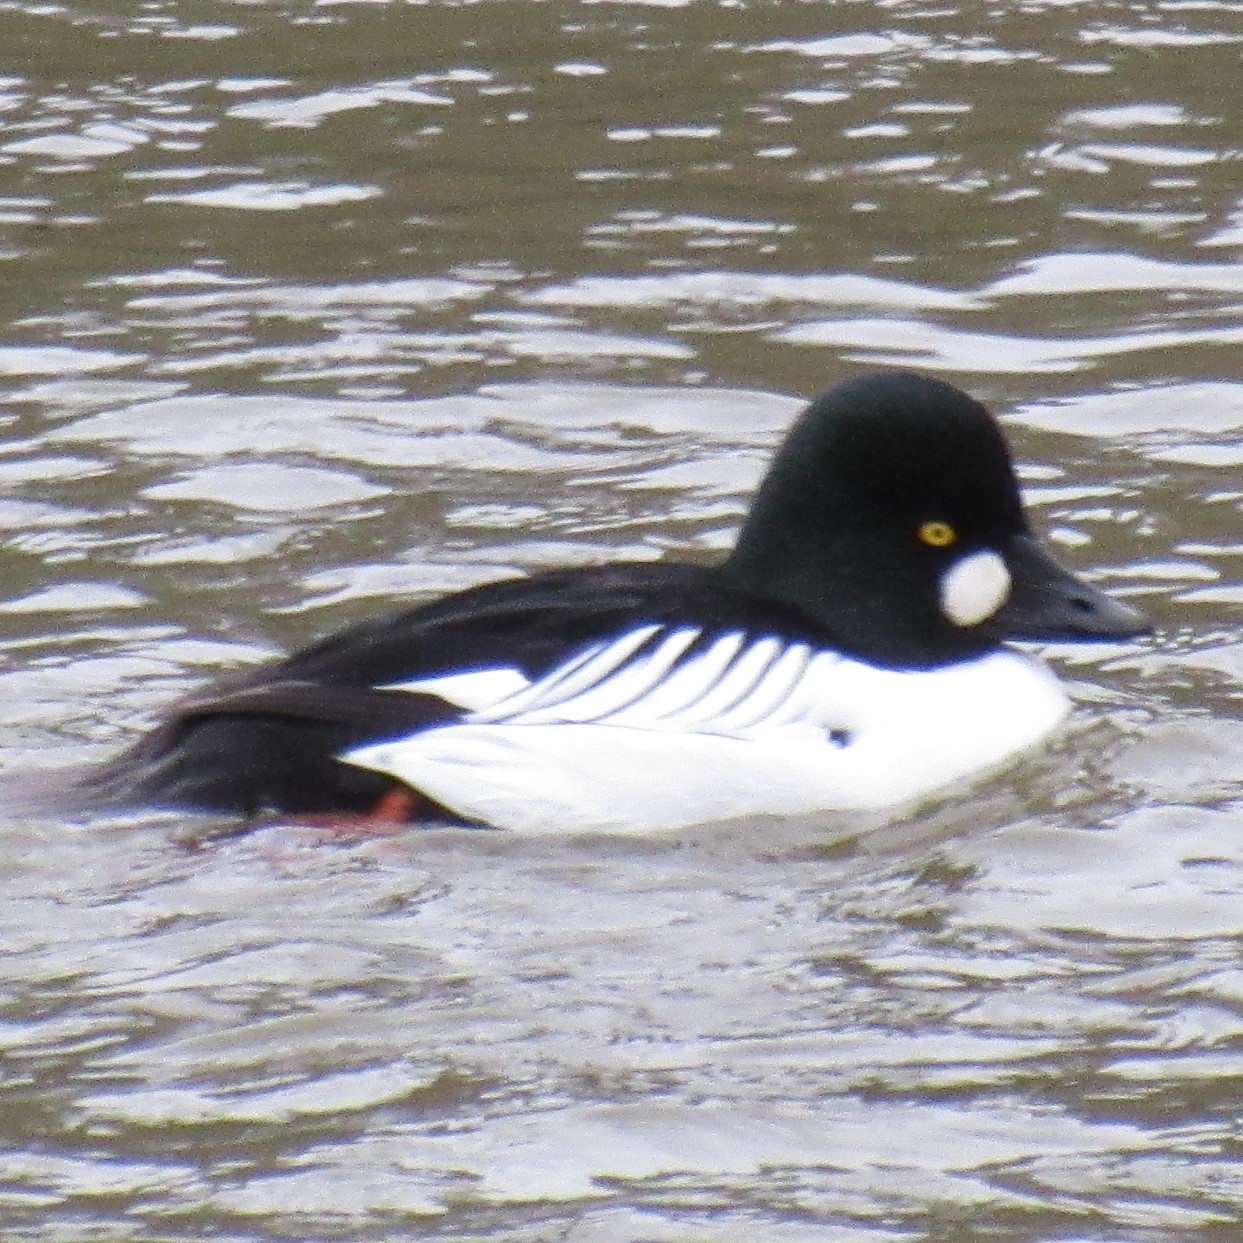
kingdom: Animalia
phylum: Chordata
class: Aves
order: Anseriformes
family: Anatidae
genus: Bucephala
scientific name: Bucephala clangula
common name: Common goldeneye
